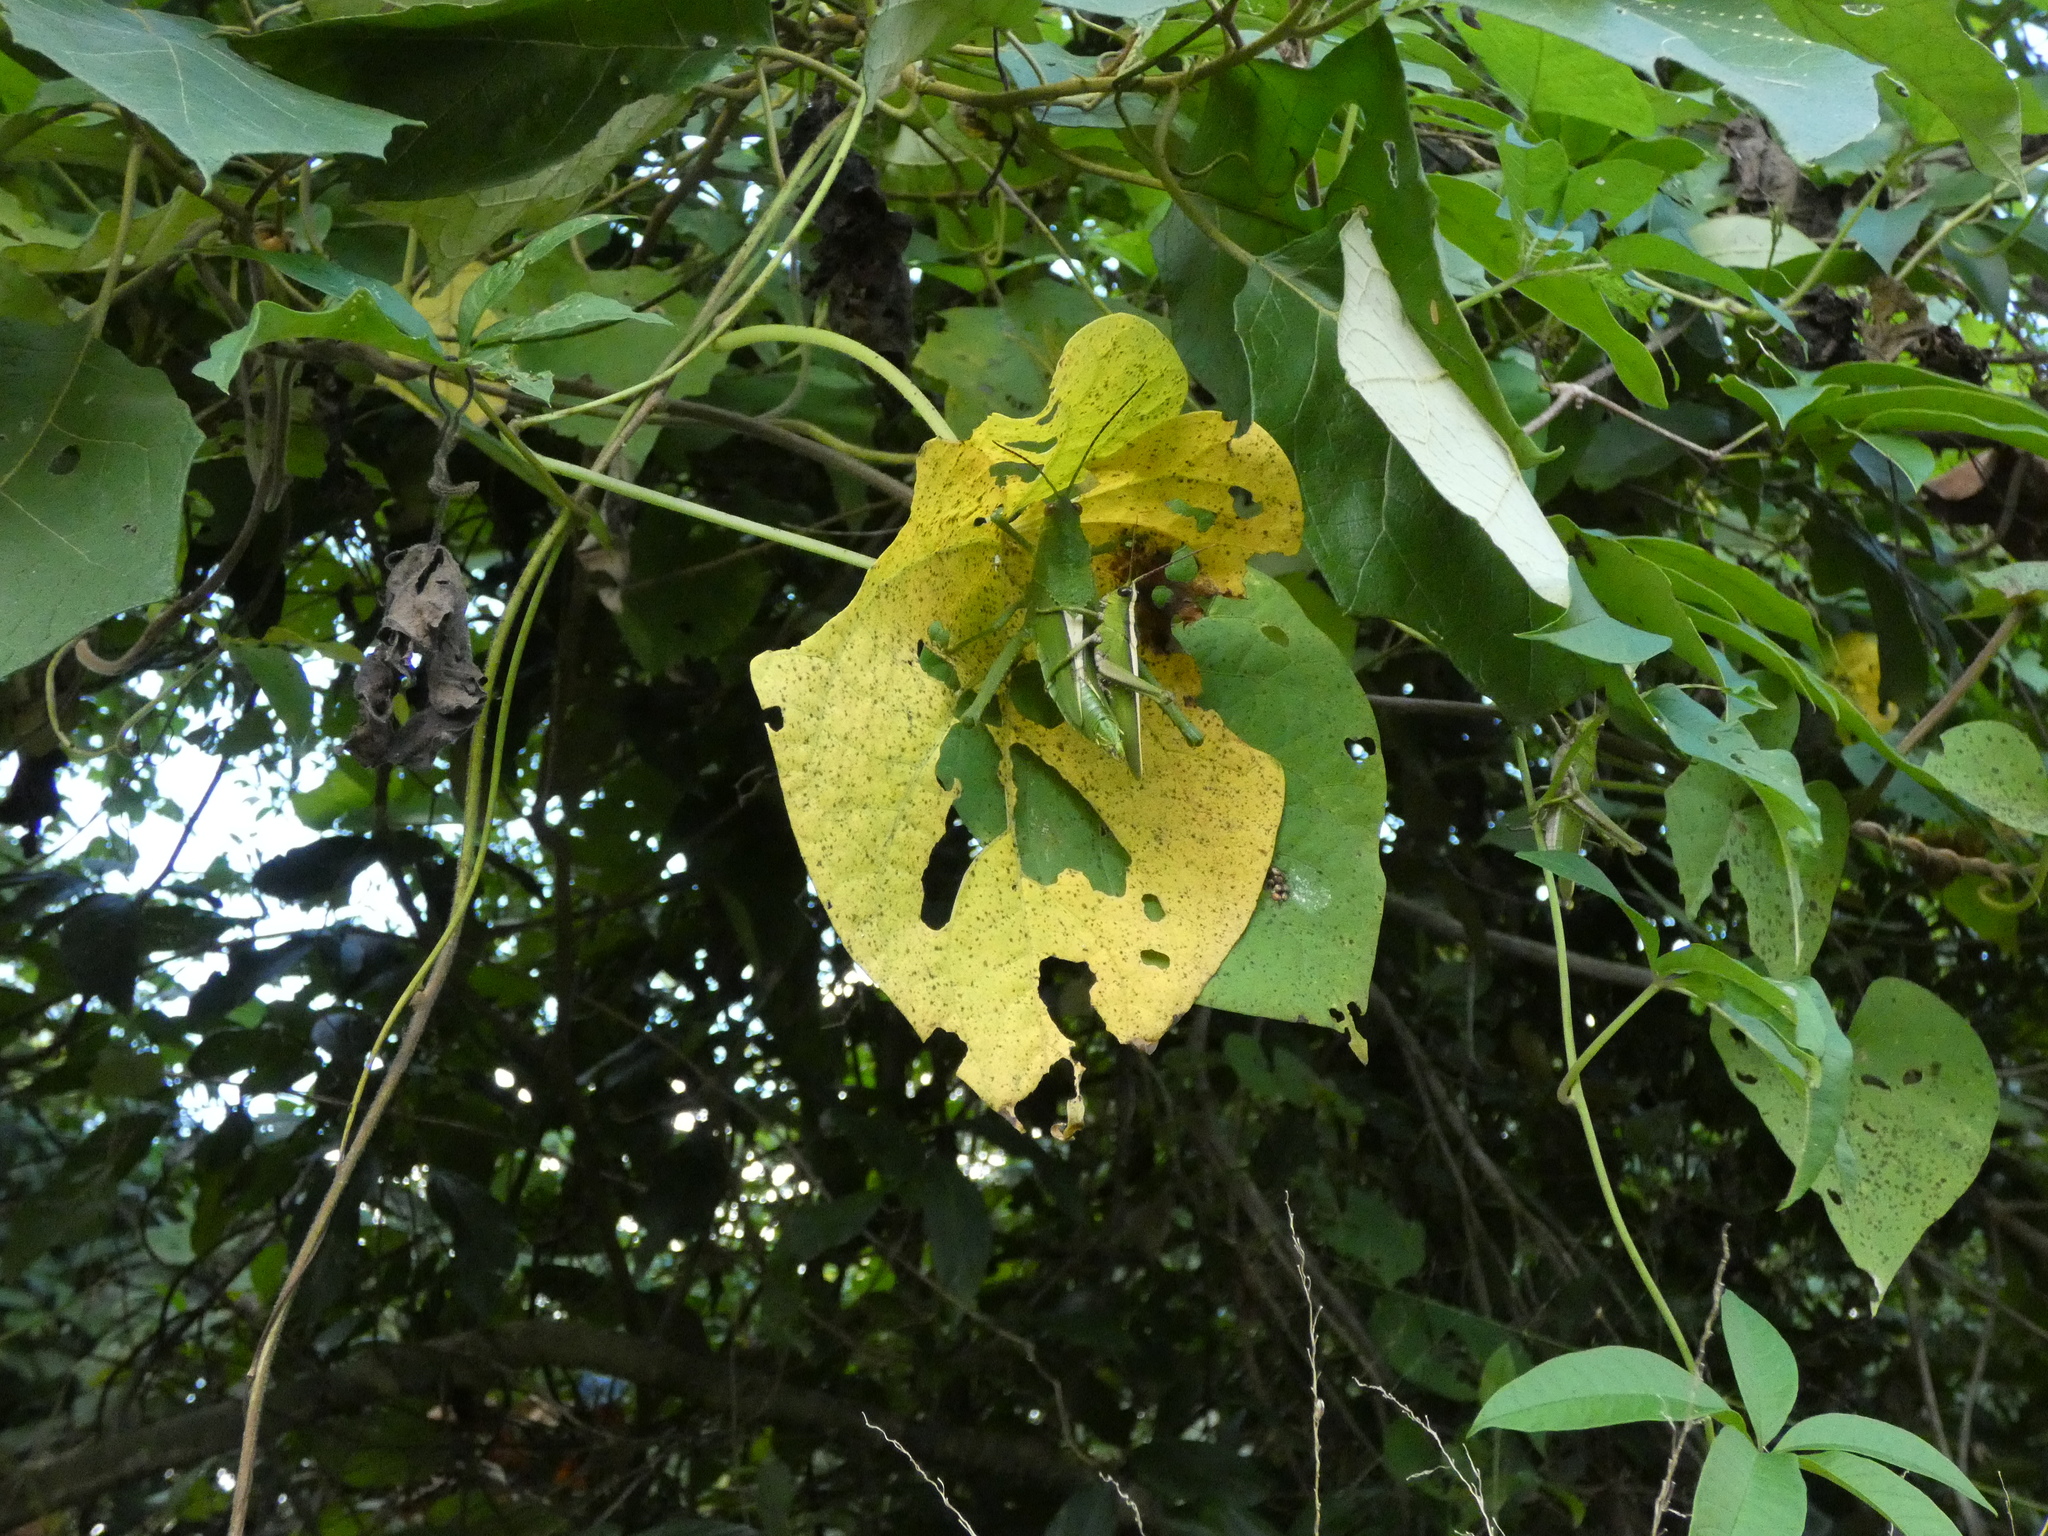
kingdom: Animalia
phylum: Arthropoda
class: Insecta
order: Orthoptera
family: Romaleidae
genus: Agriacris
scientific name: Agriacris auripennis
